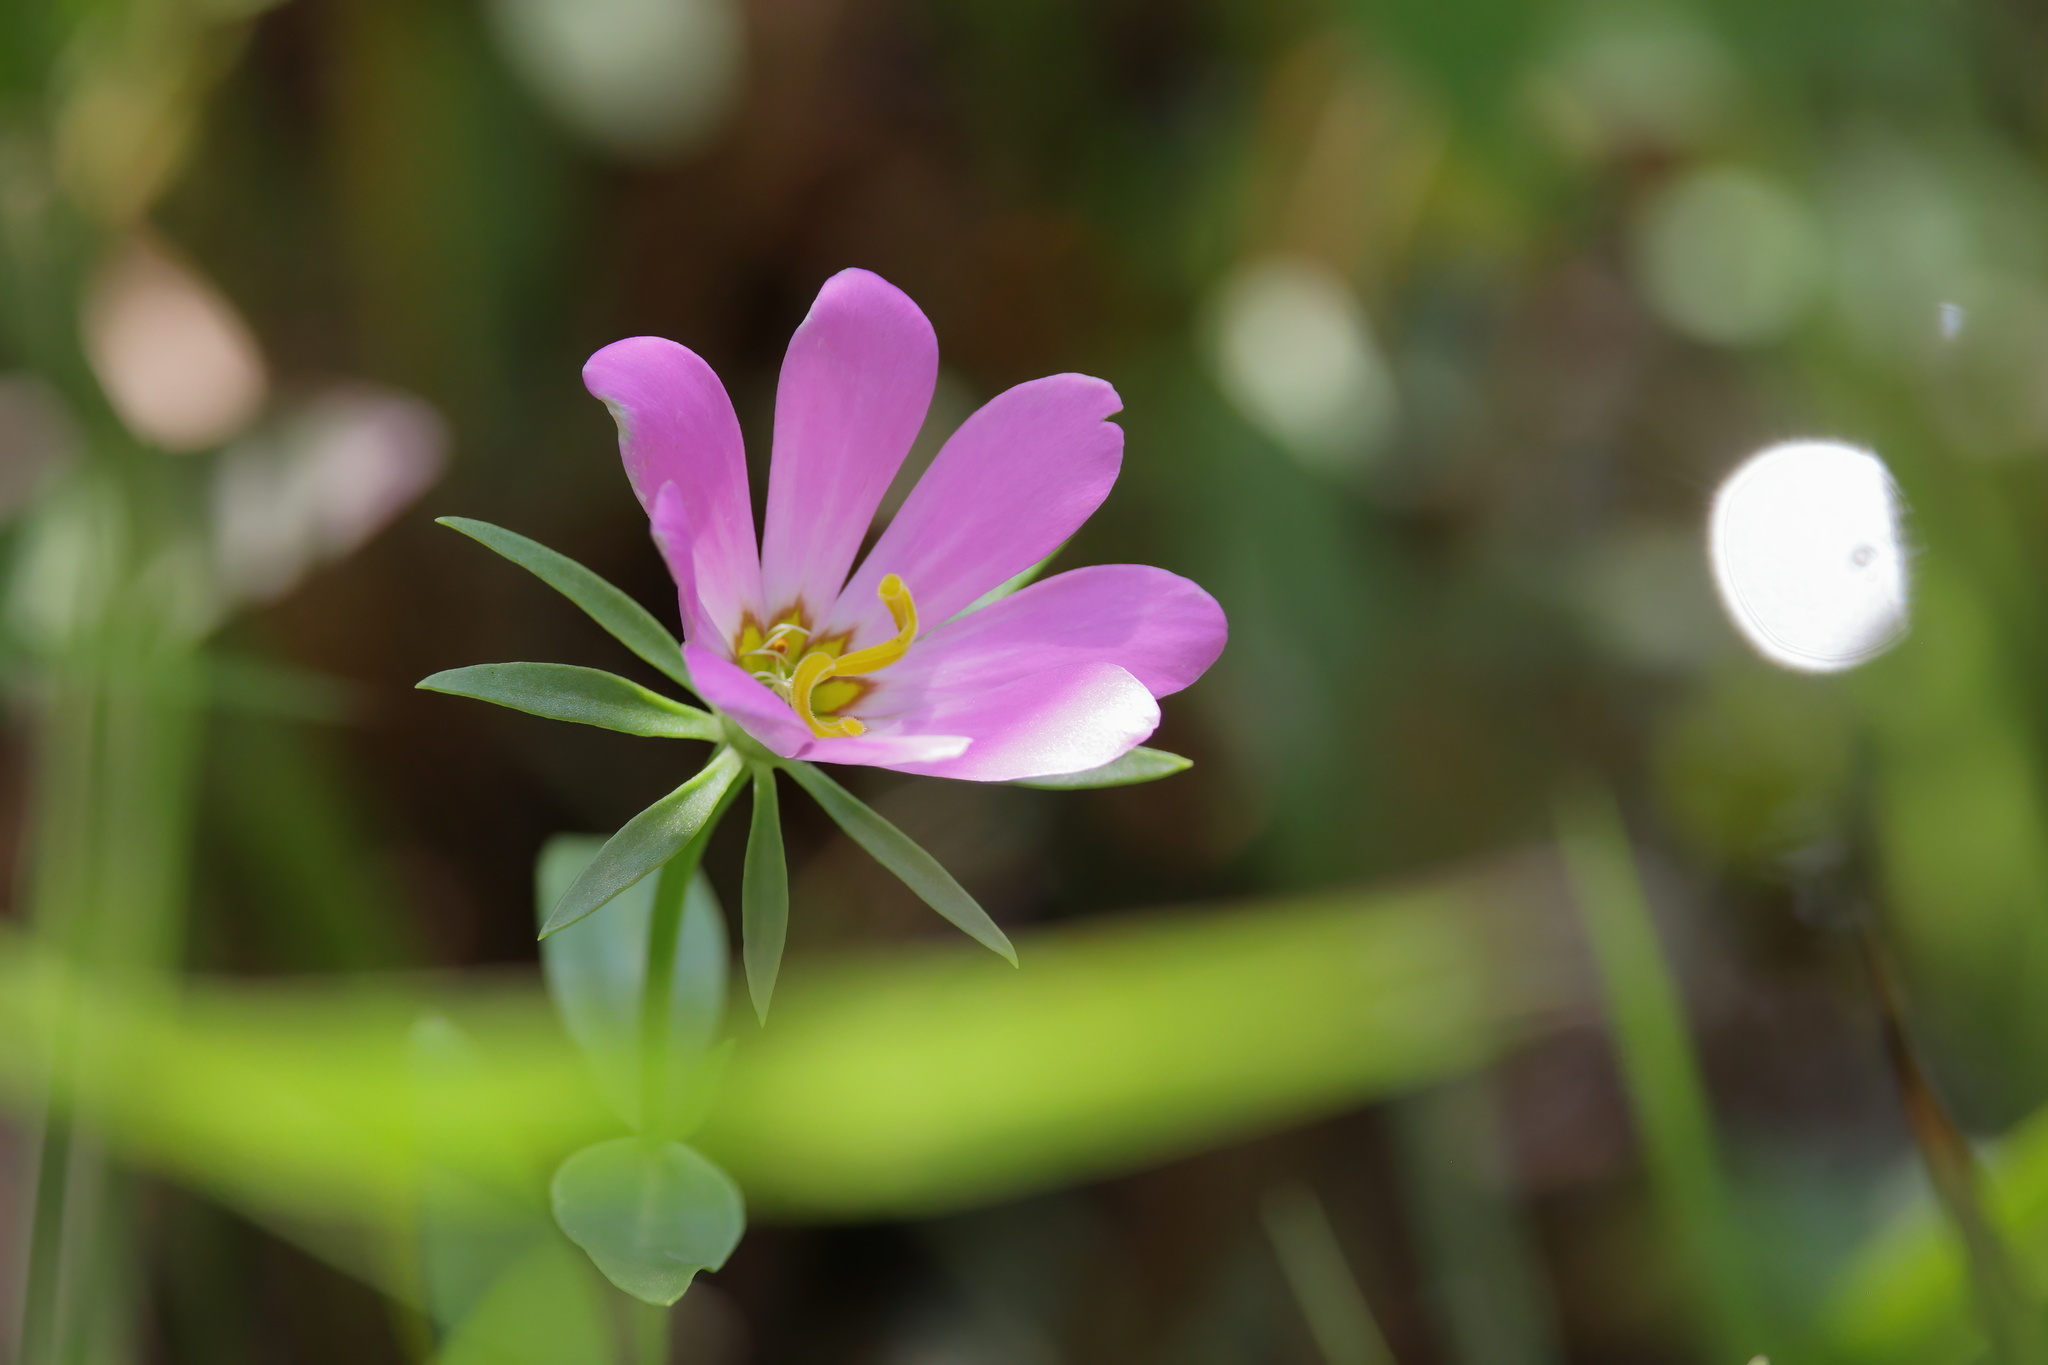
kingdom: Plantae
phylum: Tracheophyta
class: Magnoliopsida
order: Gentianales
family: Gentianaceae
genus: Sabatia
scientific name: Sabatia dodecandra
